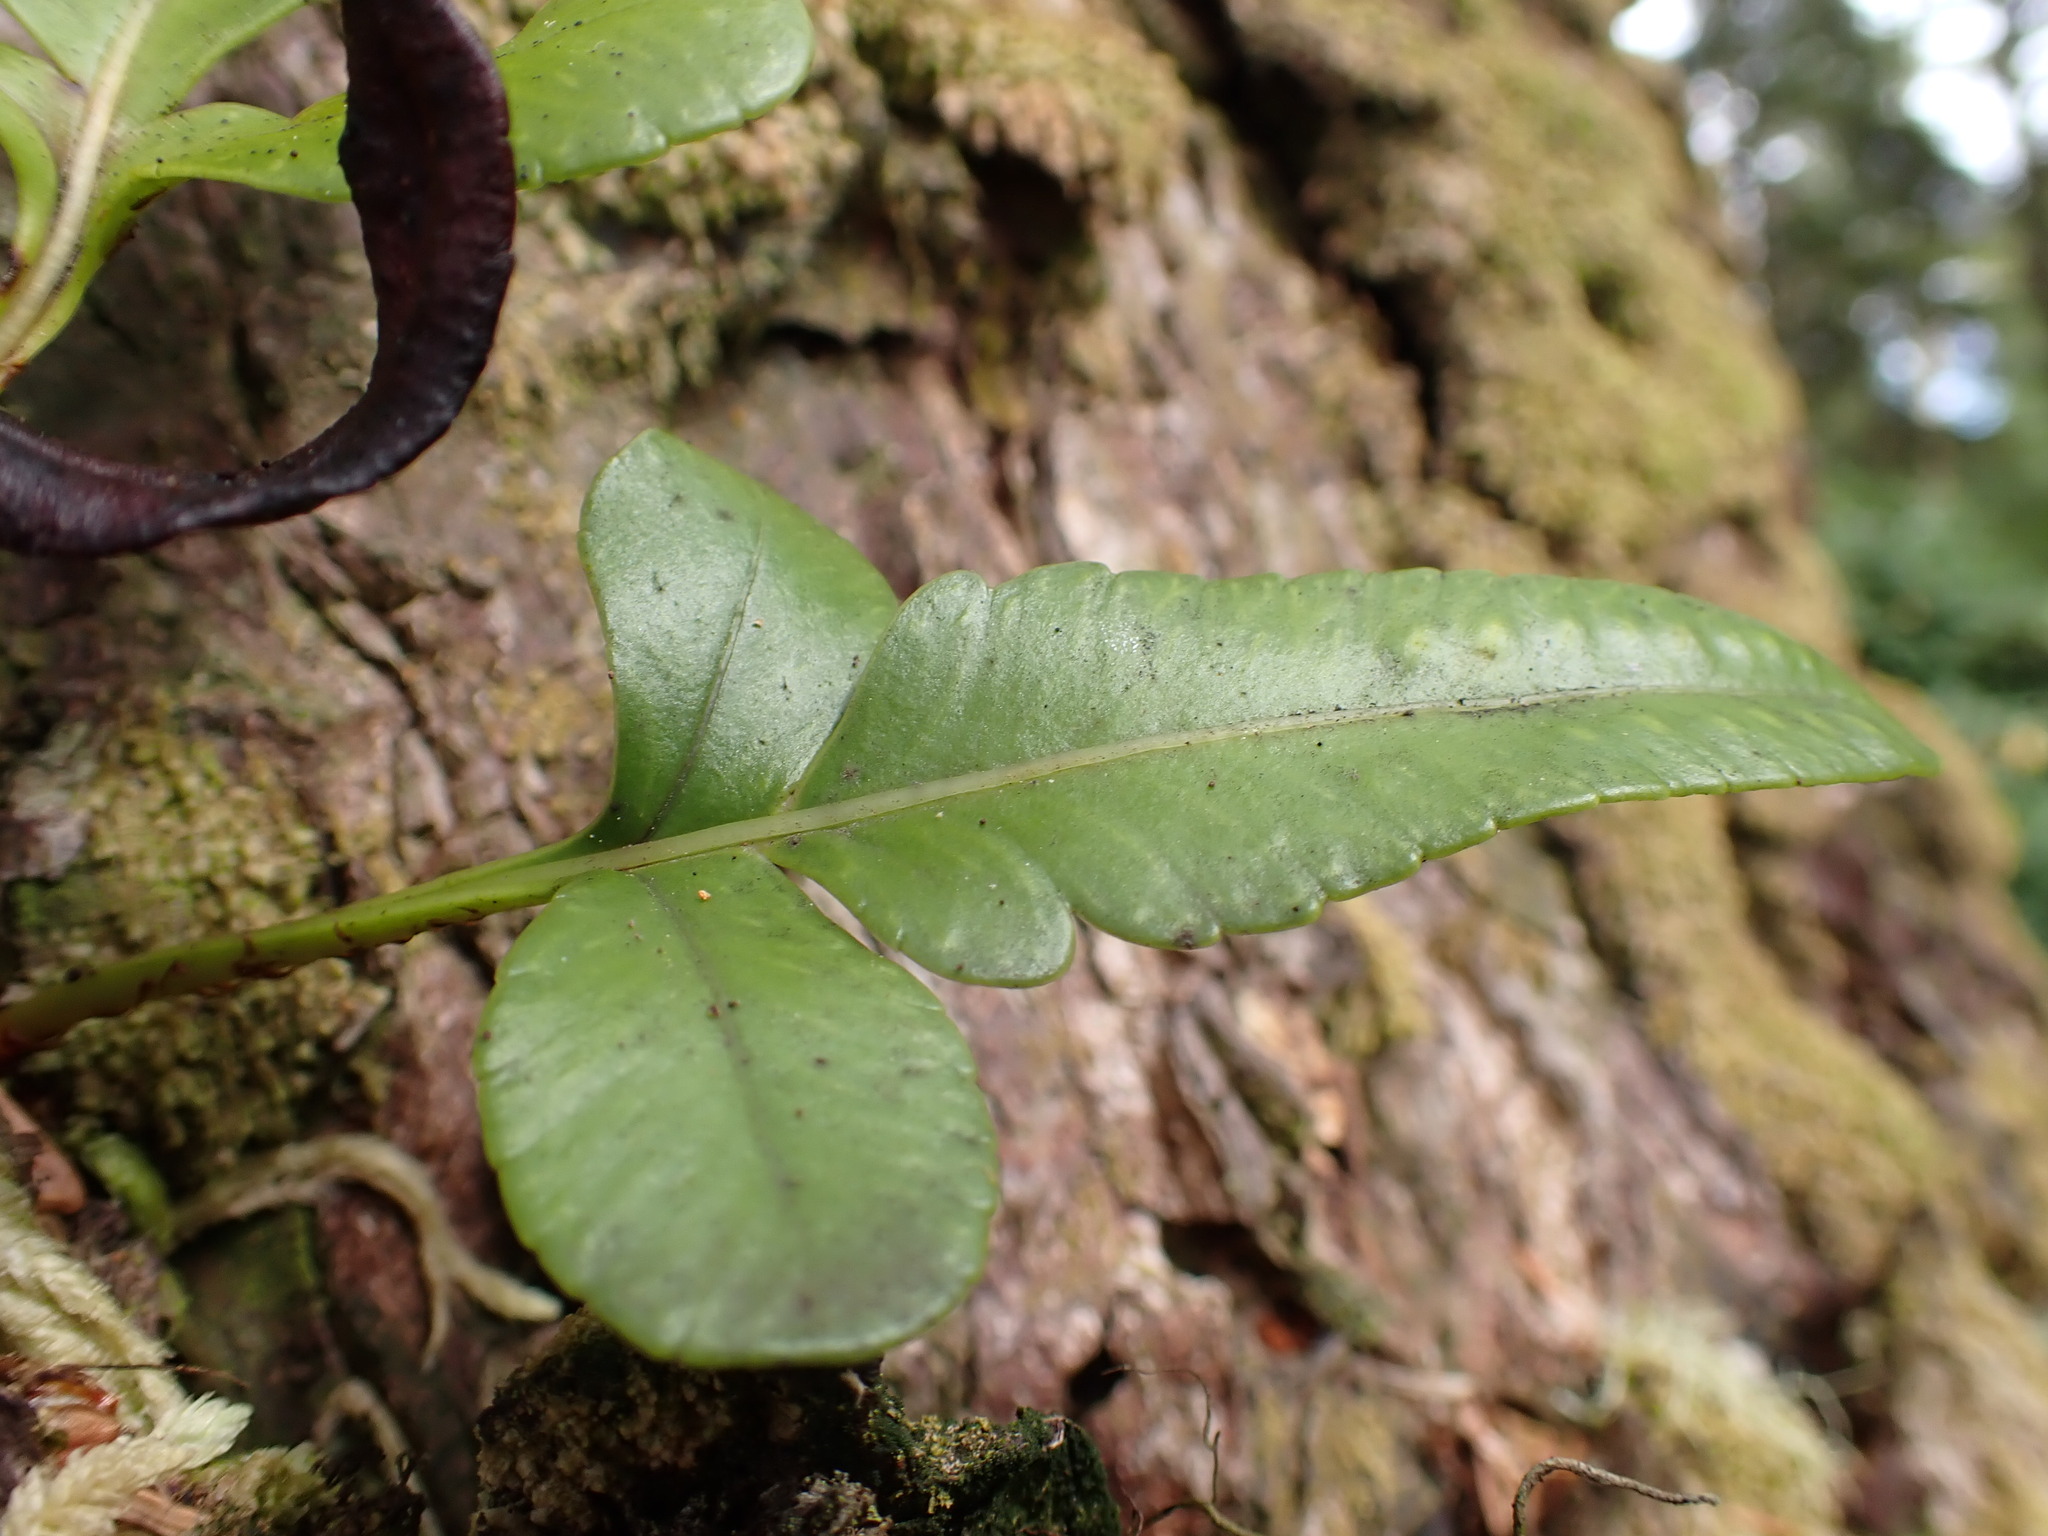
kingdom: Plantae
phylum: Tracheophyta
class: Polypodiopsida
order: Polypodiales
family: Polypodiaceae
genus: Polypodium
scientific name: Polypodium scouleri
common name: Scouler's polypody
